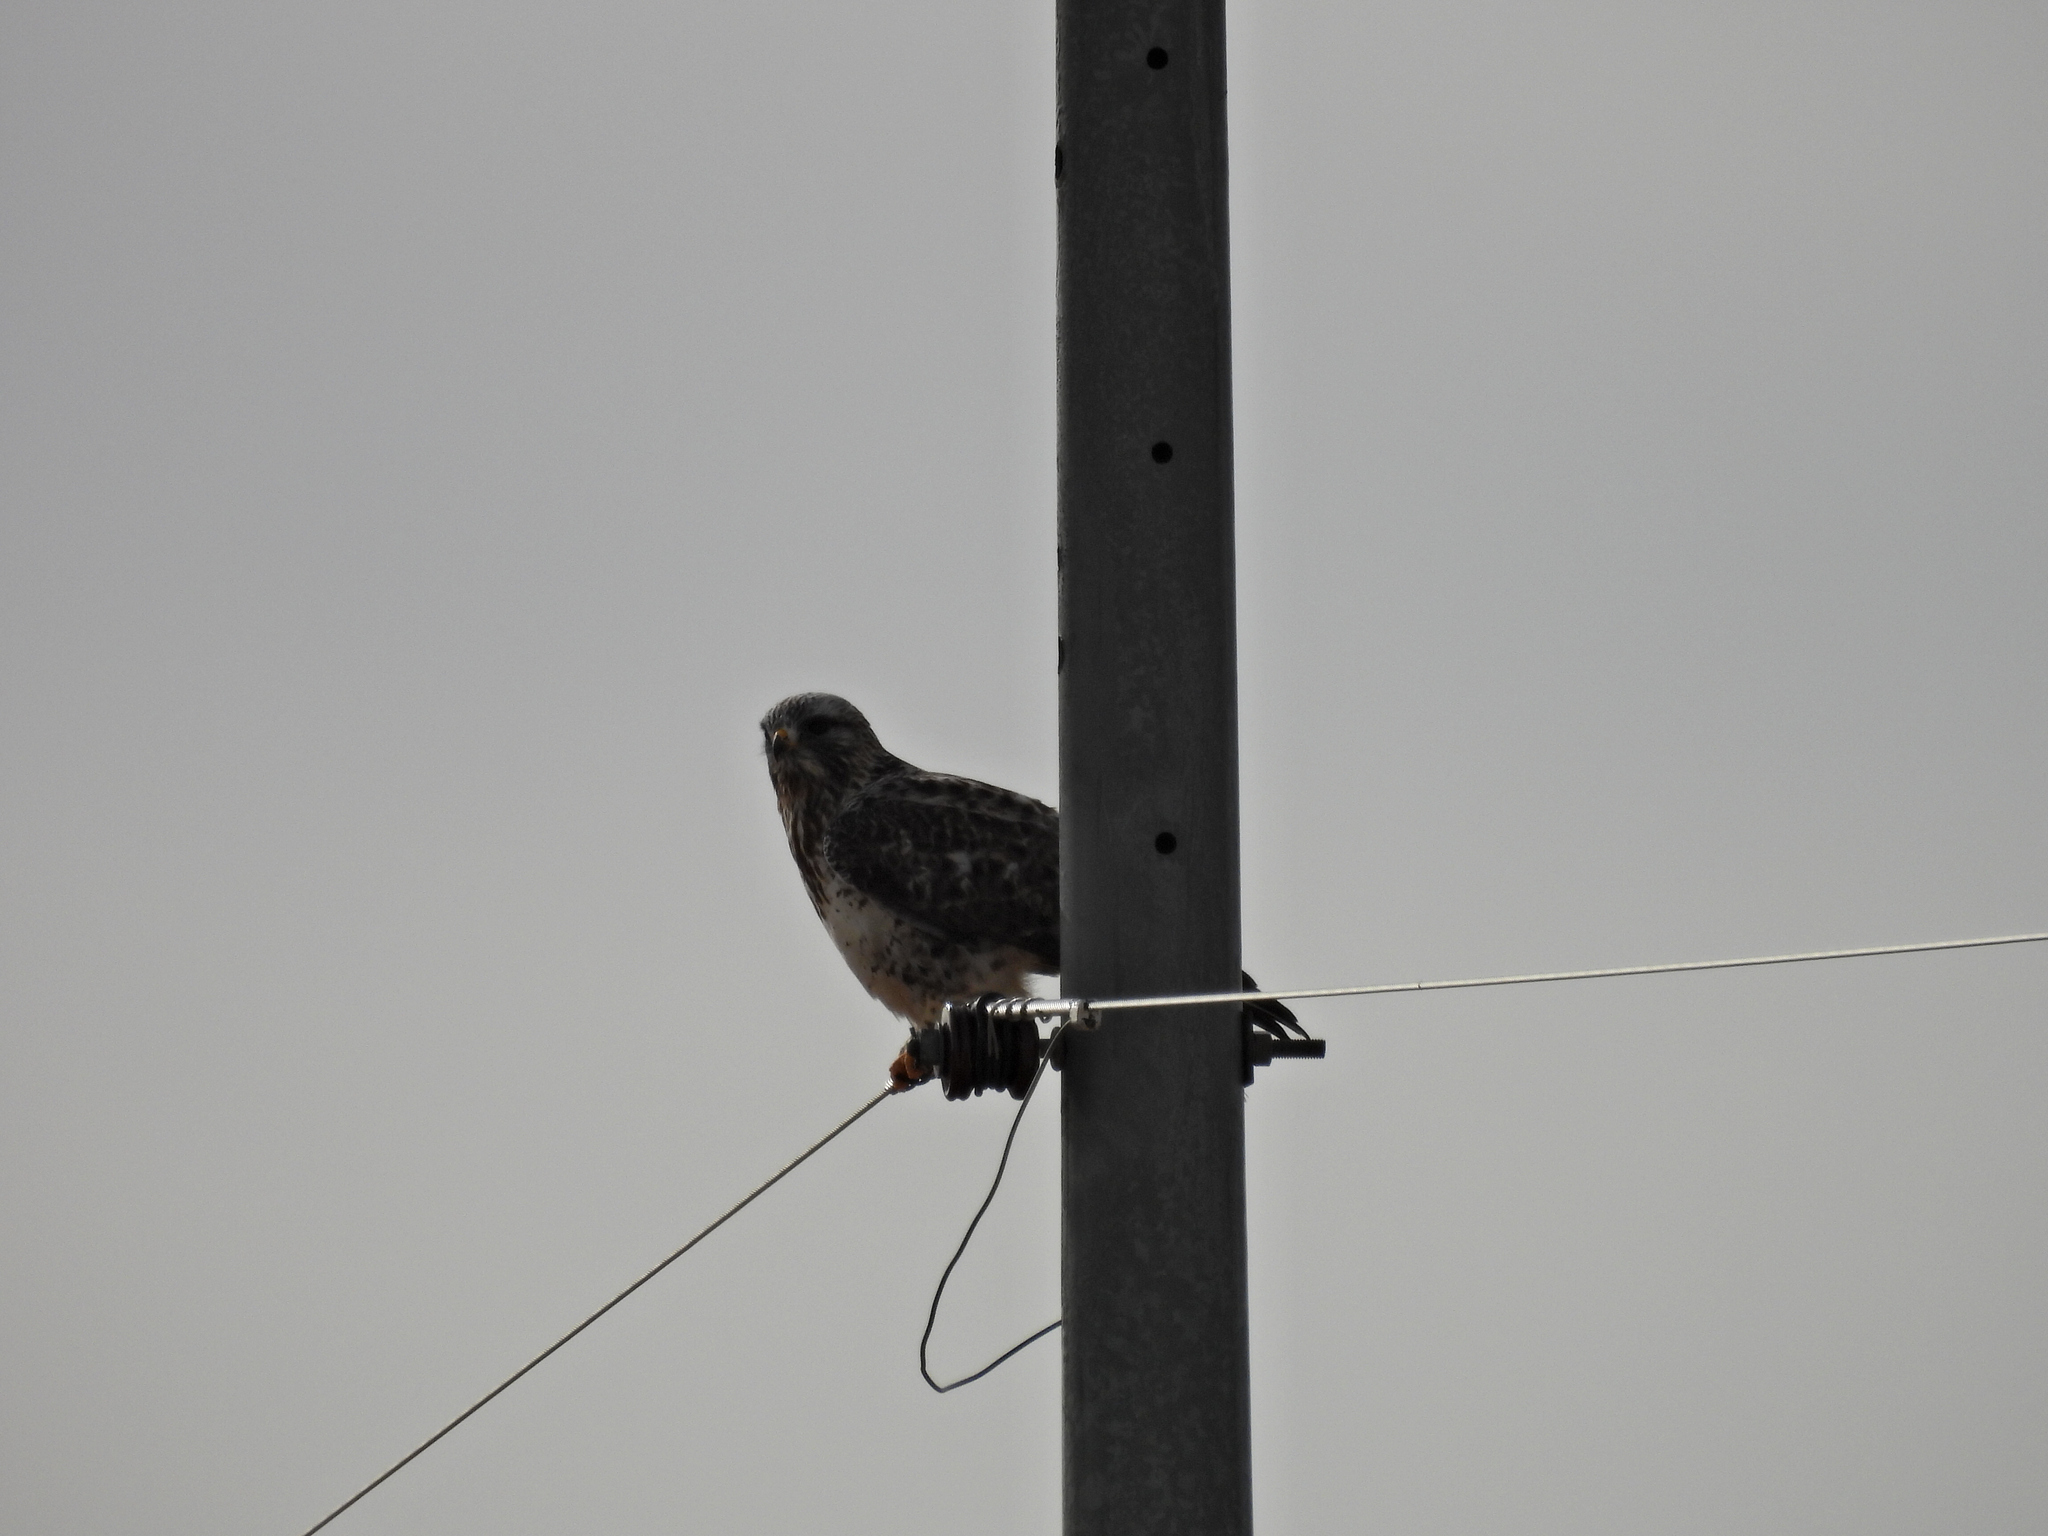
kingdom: Animalia
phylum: Chordata
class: Aves
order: Accipitriformes
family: Accipitridae
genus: Buteo
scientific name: Buteo lagopus
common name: Rough-legged buzzard
